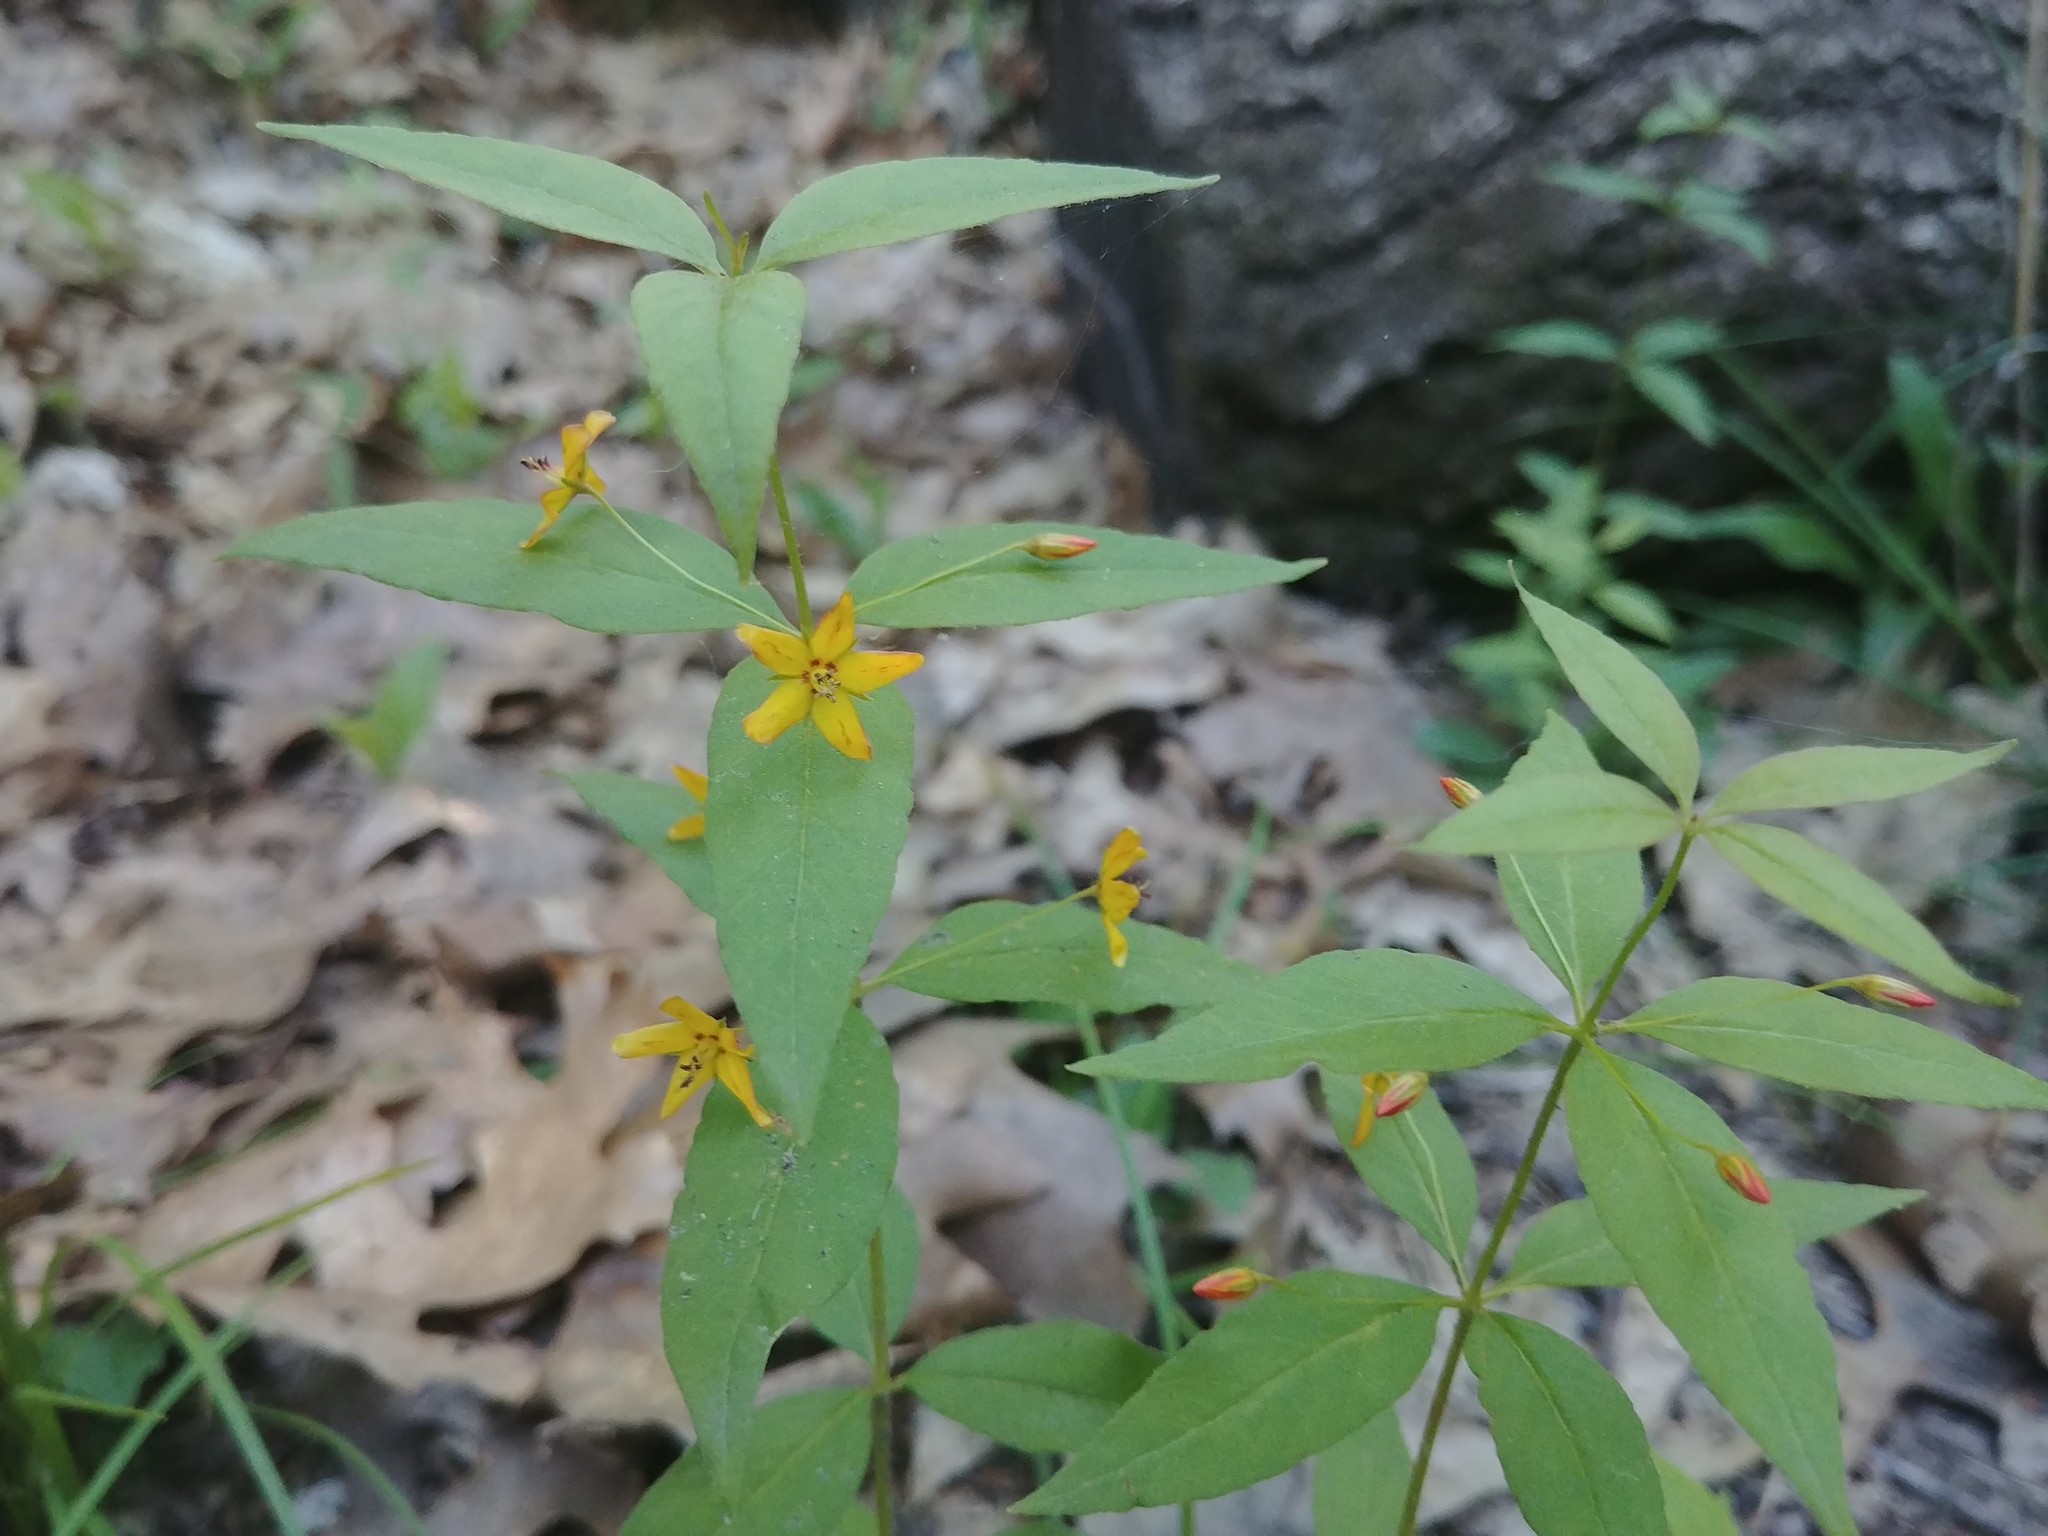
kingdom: Plantae
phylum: Tracheophyta
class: Magnoliopsida
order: Ericales
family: Primulaceae
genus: Lysimachia
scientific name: Lysimachia quadrifolia
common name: Whorled loosestrife
